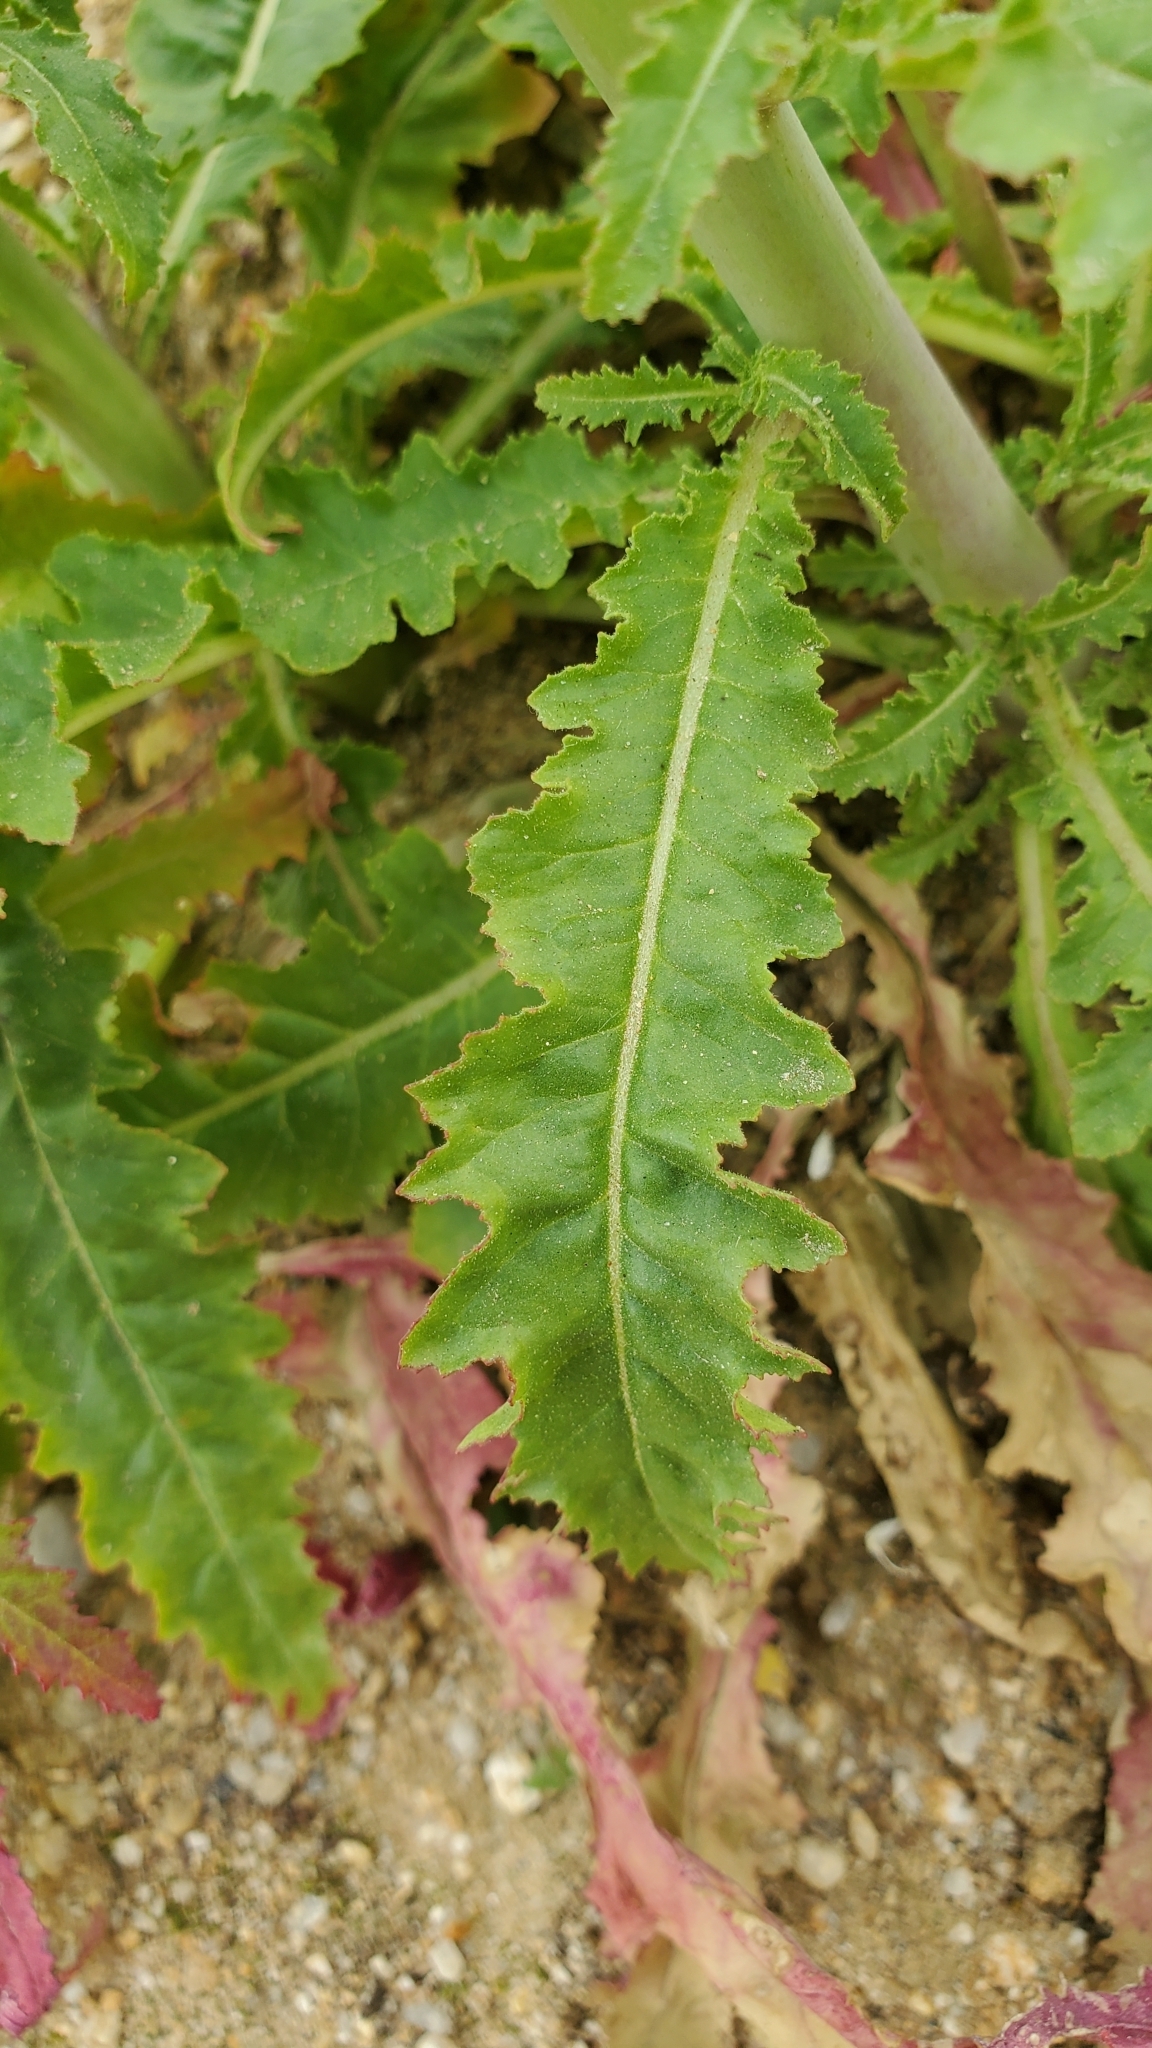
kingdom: Plantae
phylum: Tracheophyta
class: Magnoliopsida
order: Myrtales
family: Onagraceae
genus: Eulobus
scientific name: Eulobus californicus
